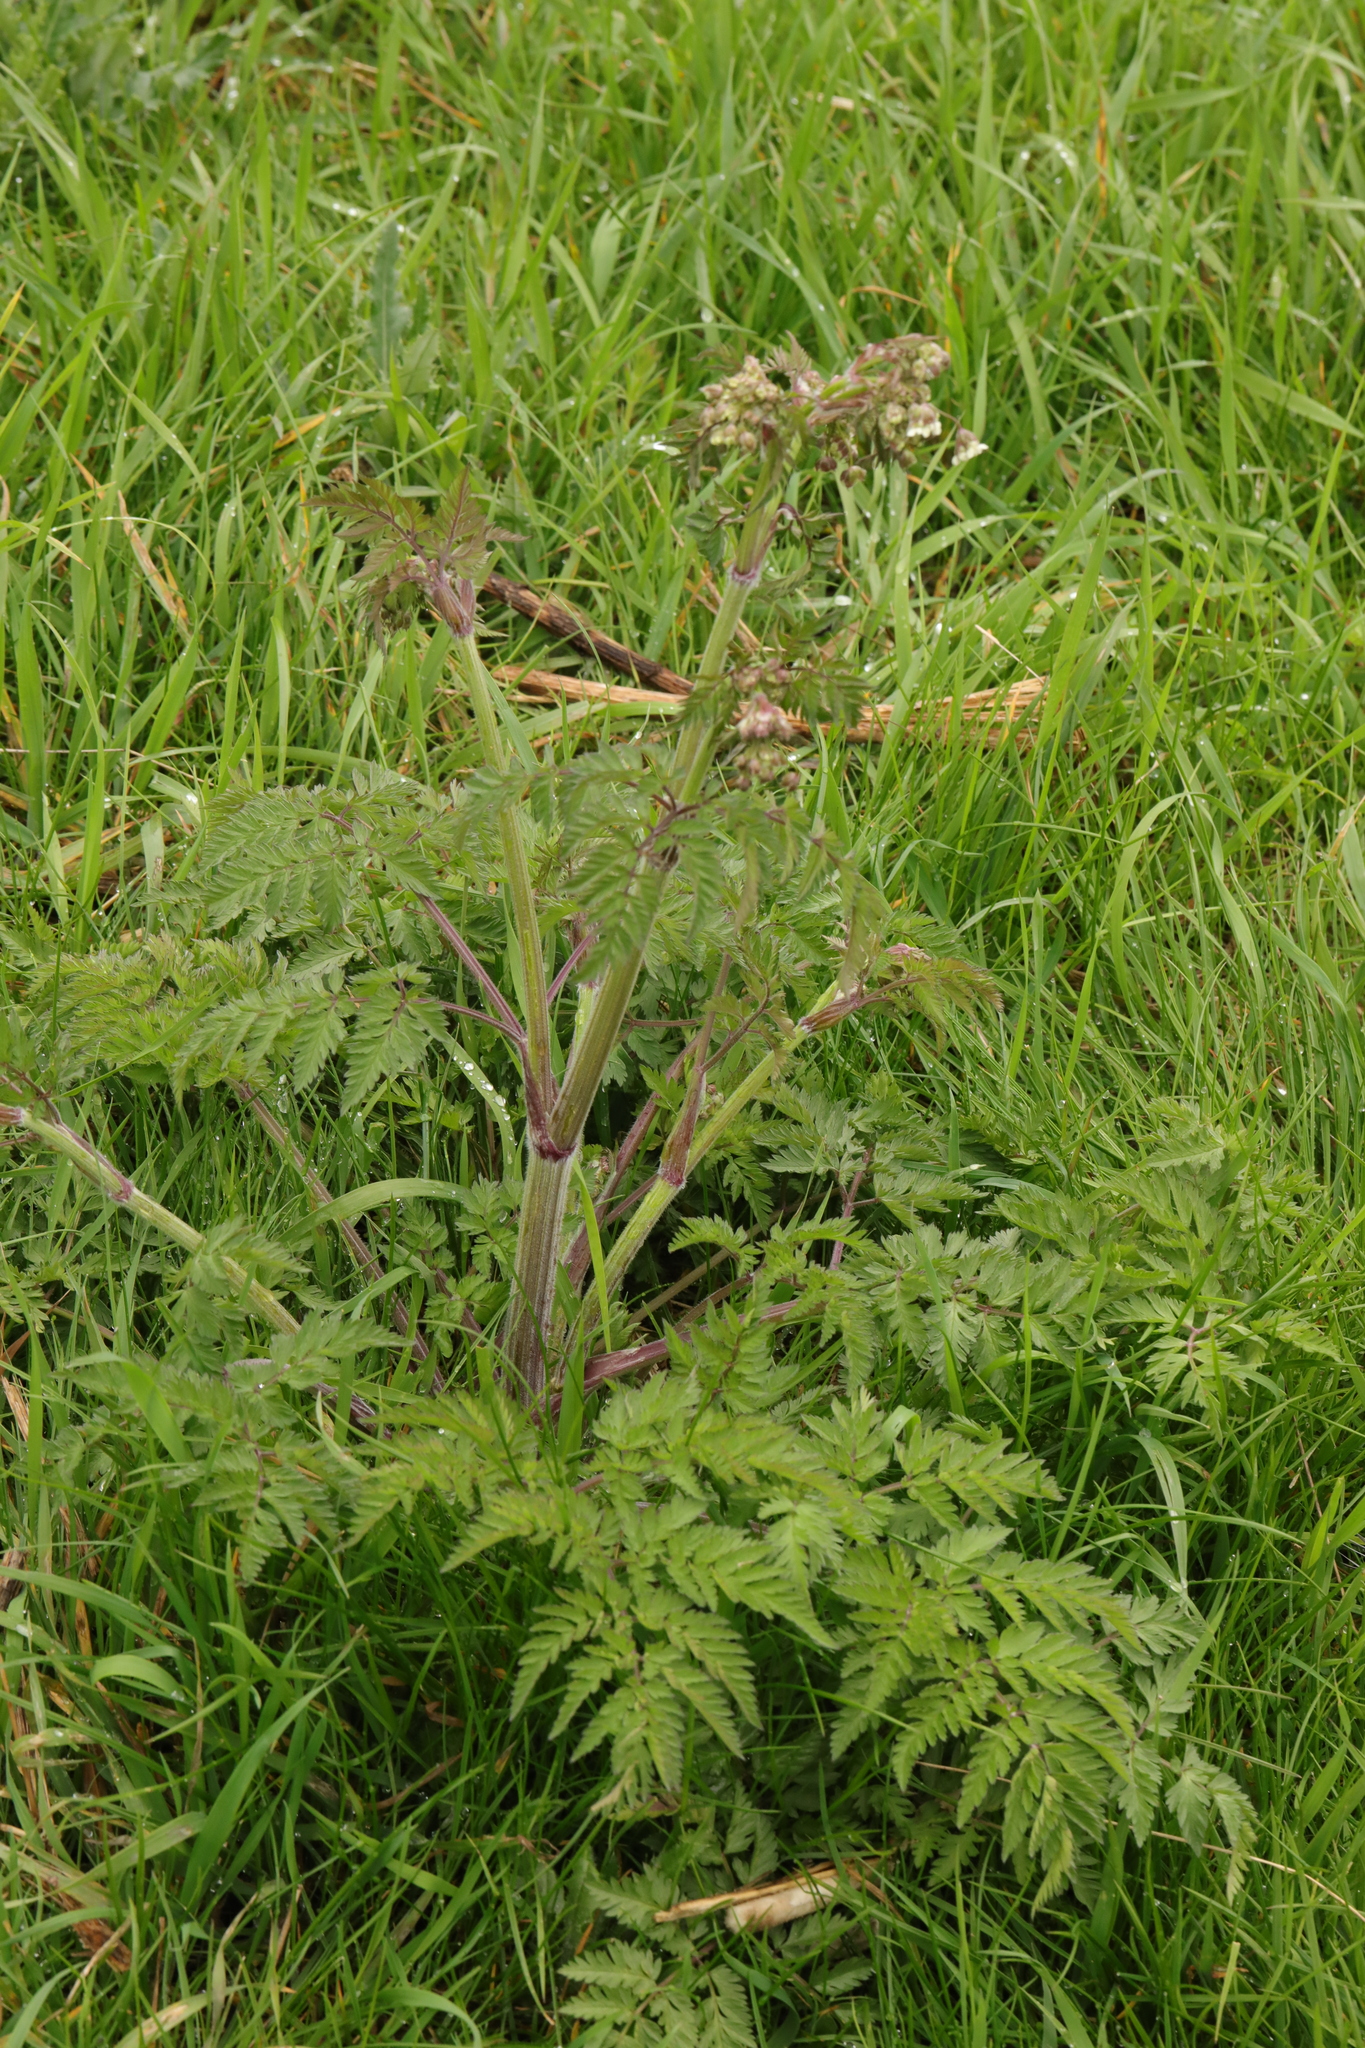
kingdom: Plantae
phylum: Tracheophyta
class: Magnoliopsida
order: Apiales
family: Apiaceae
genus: Anthriscus
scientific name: Anthriscus sylvestris
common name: Cow parsley
